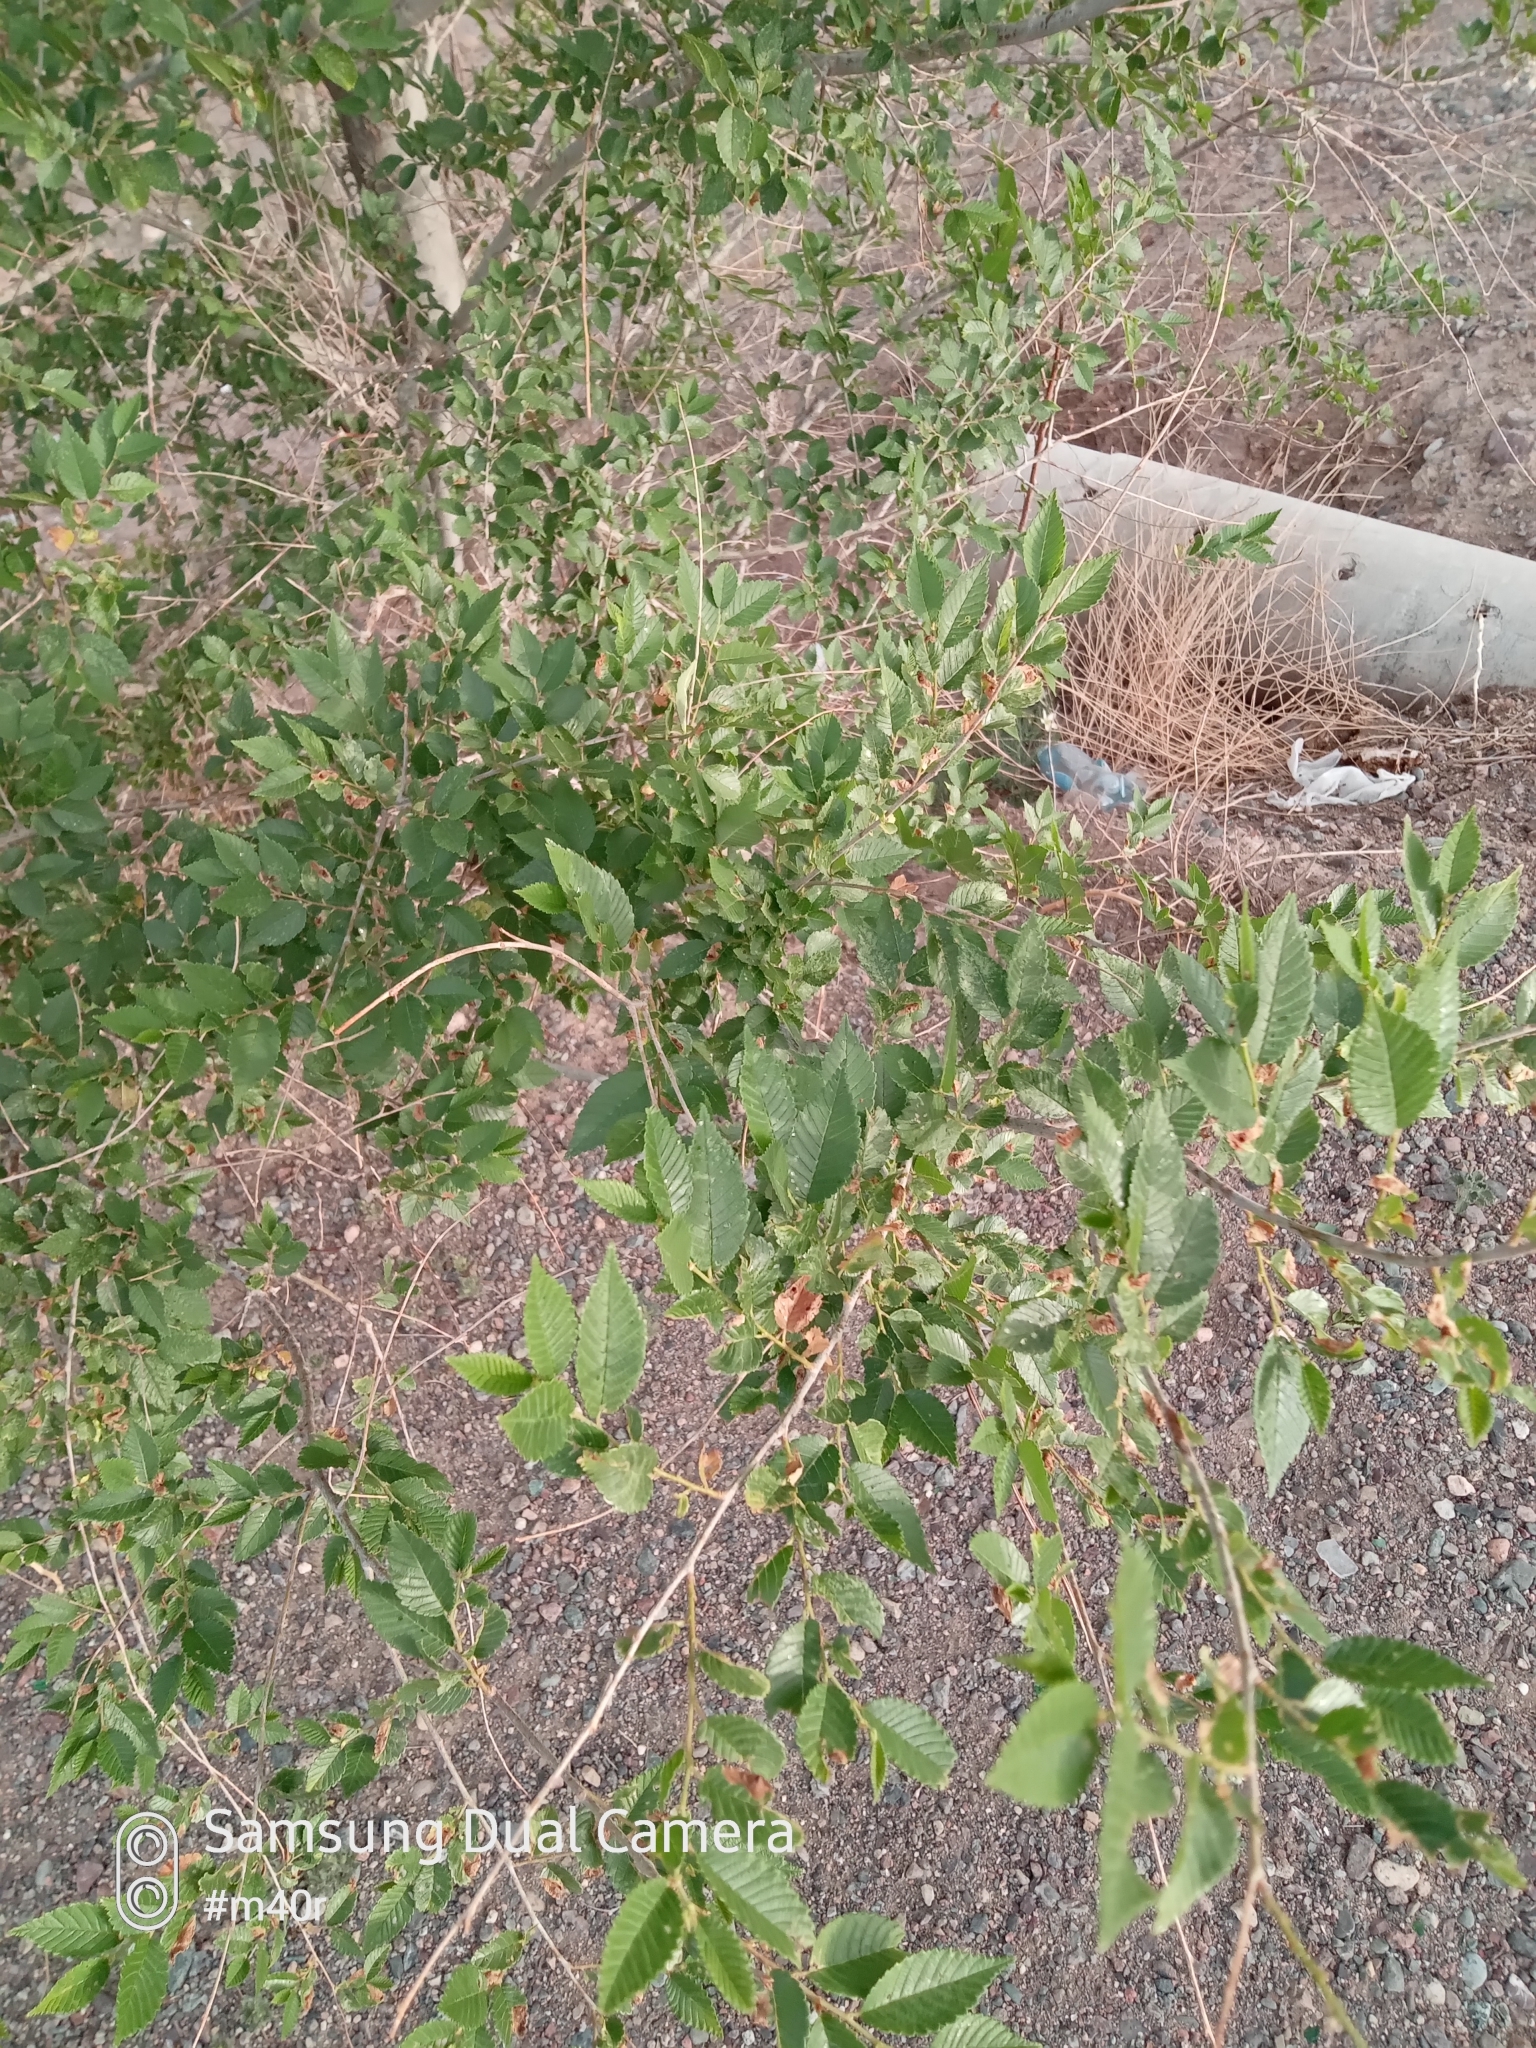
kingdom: Plantae
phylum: Tracheophyta
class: Magnoliopsida
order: Rosales
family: Ulmaceae
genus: Ulmus
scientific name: Ulmus pumila
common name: Siberian elm
